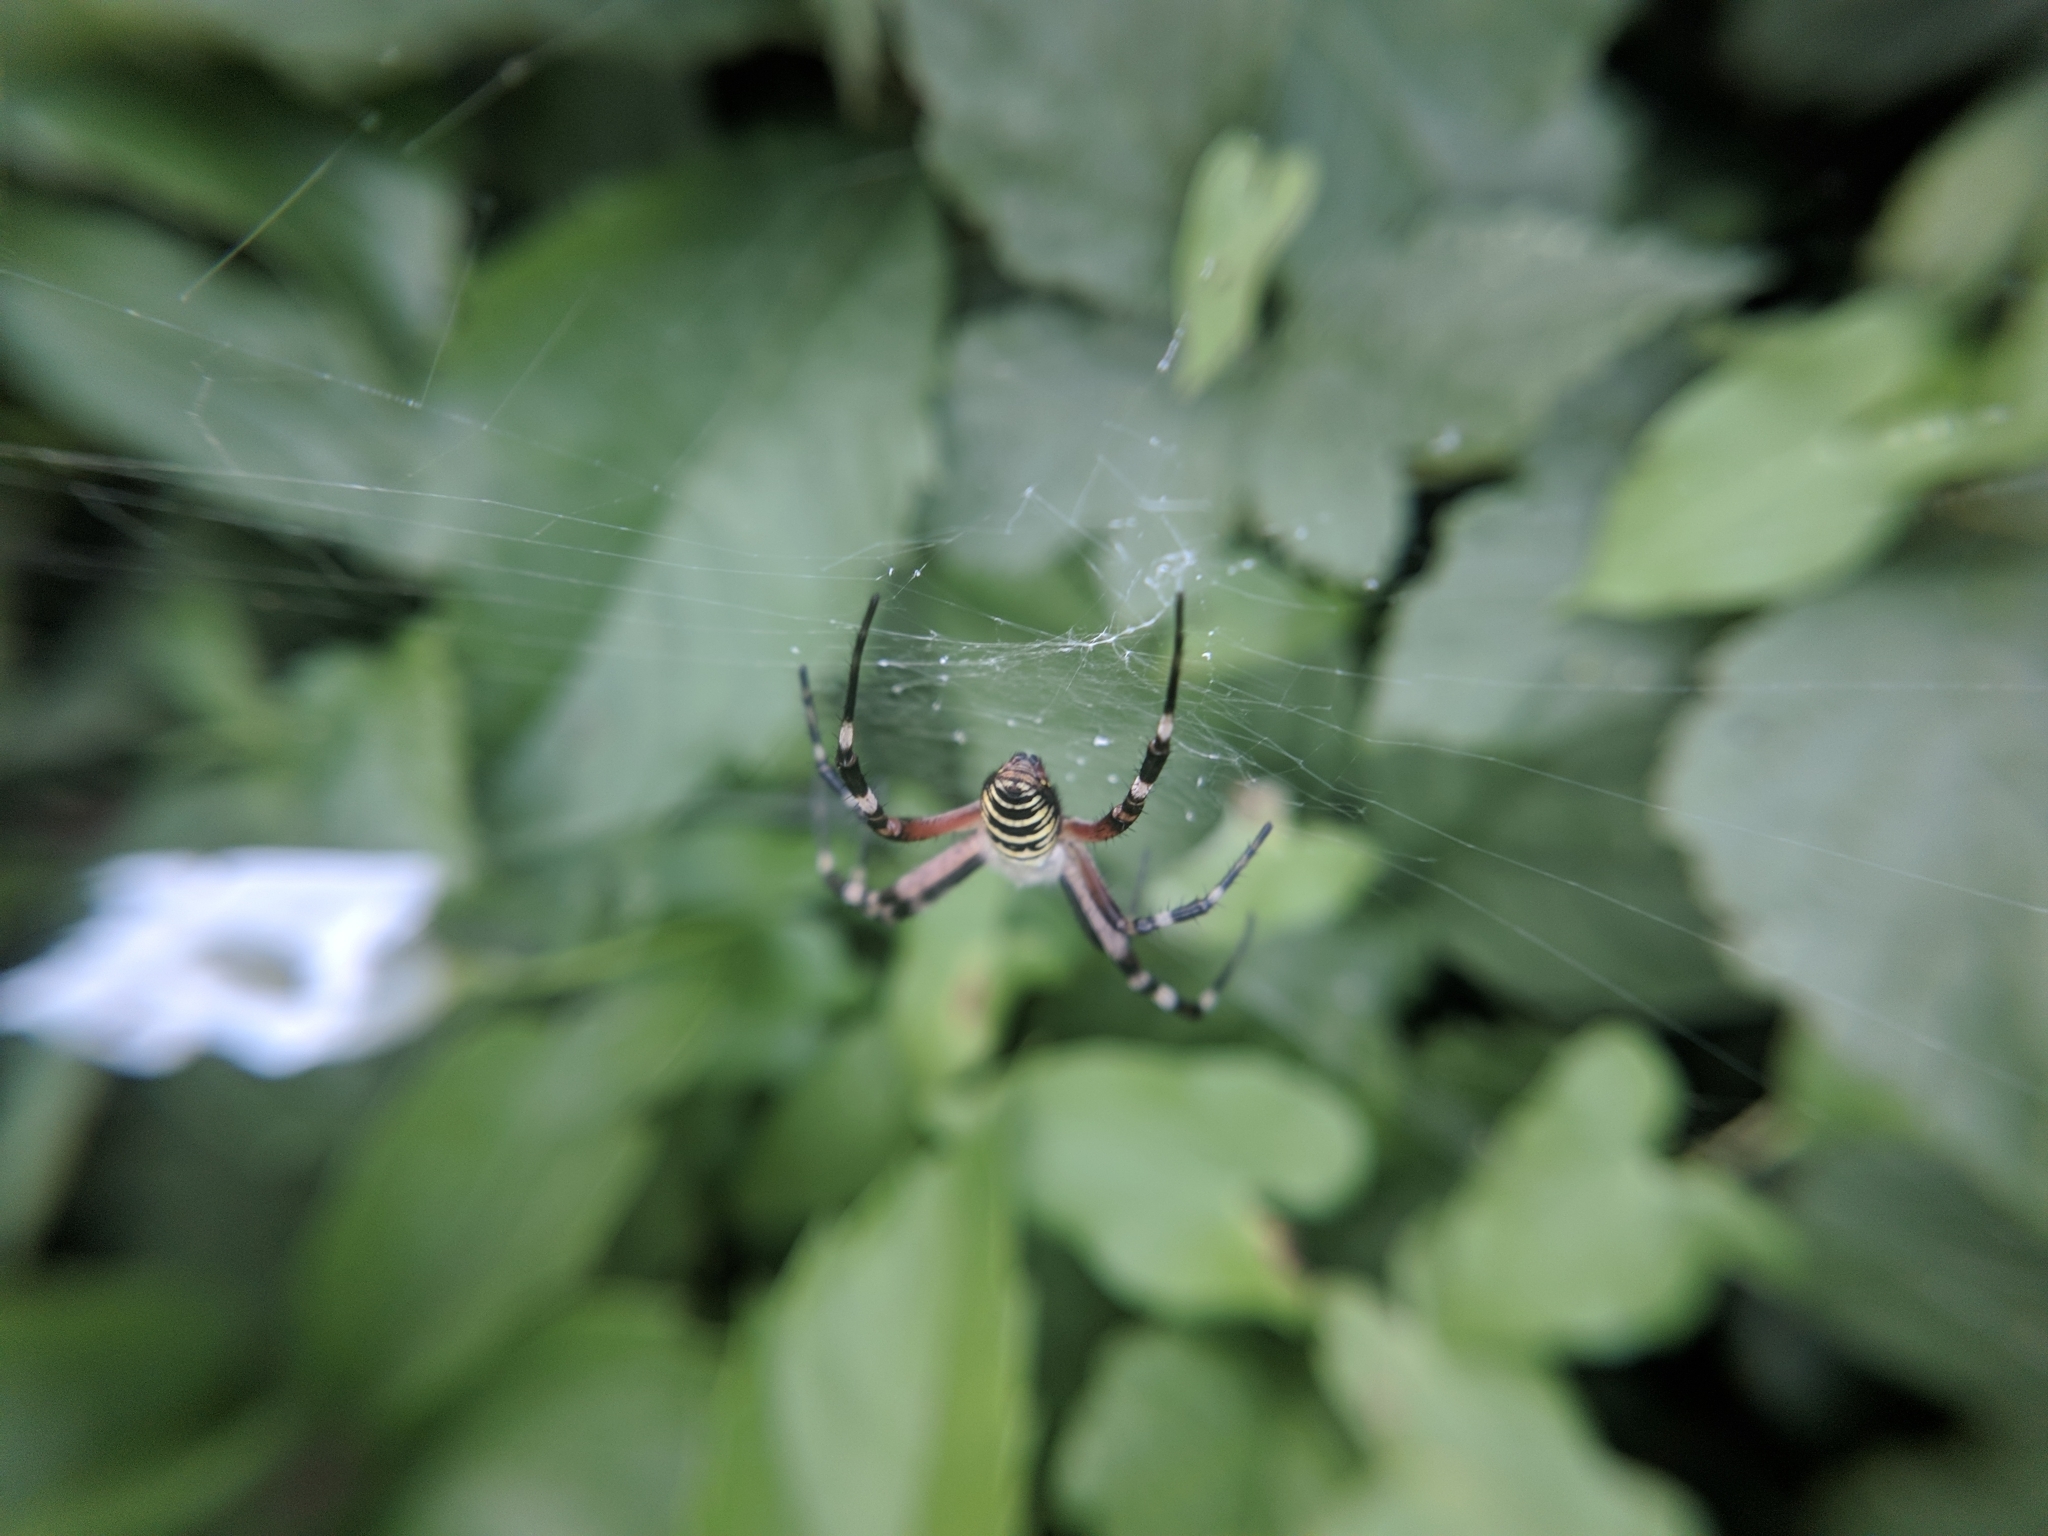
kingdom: Animalia
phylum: Arthropoda
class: Arachnida
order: Araneae
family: Araneidae
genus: Argiope
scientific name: Argiope bruennichi
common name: Wasp spider
